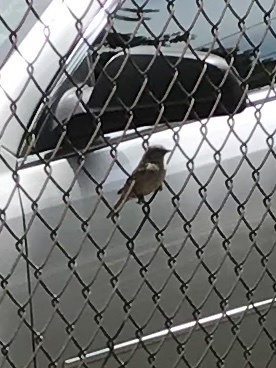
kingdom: Animalia
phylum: Chordata
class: Aves
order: Passeriformes
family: Passeridae
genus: Passer
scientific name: Passer domesticus
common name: House sparrow
